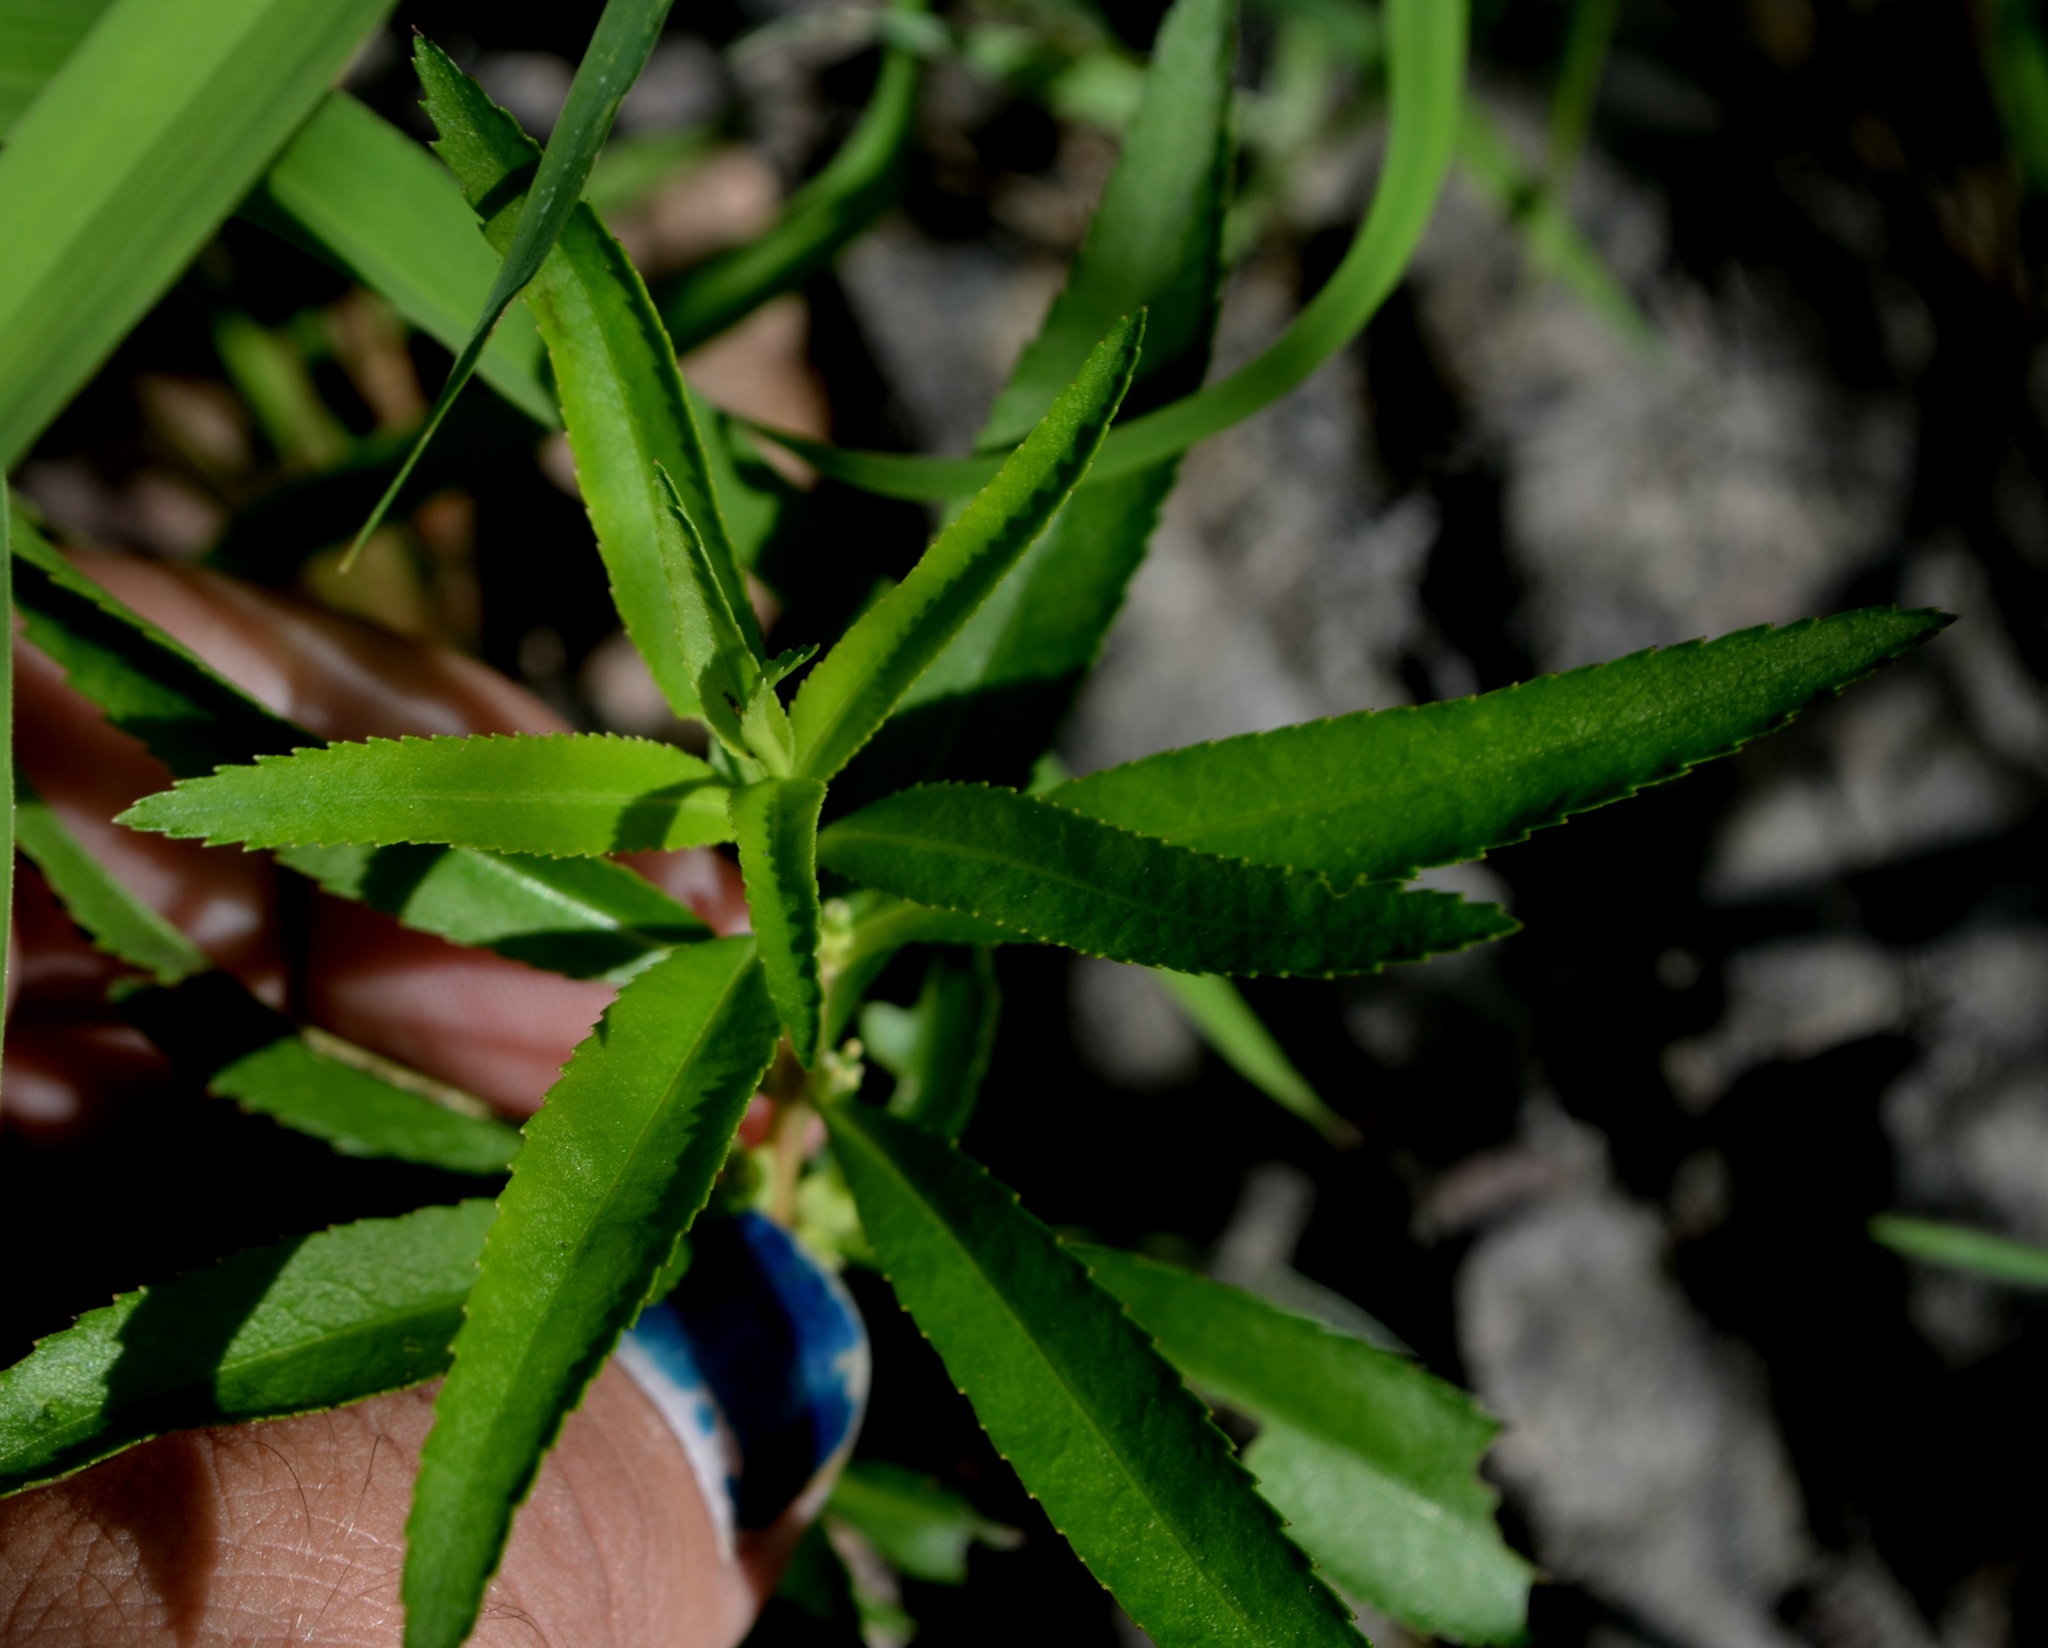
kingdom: Plantae
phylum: Tracheophyta
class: Magnoliopsida
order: Saxifragales
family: Haloragaceae
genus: Proserpinaca
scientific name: Proserpinaca palustris
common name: Marsh mermaidweed
